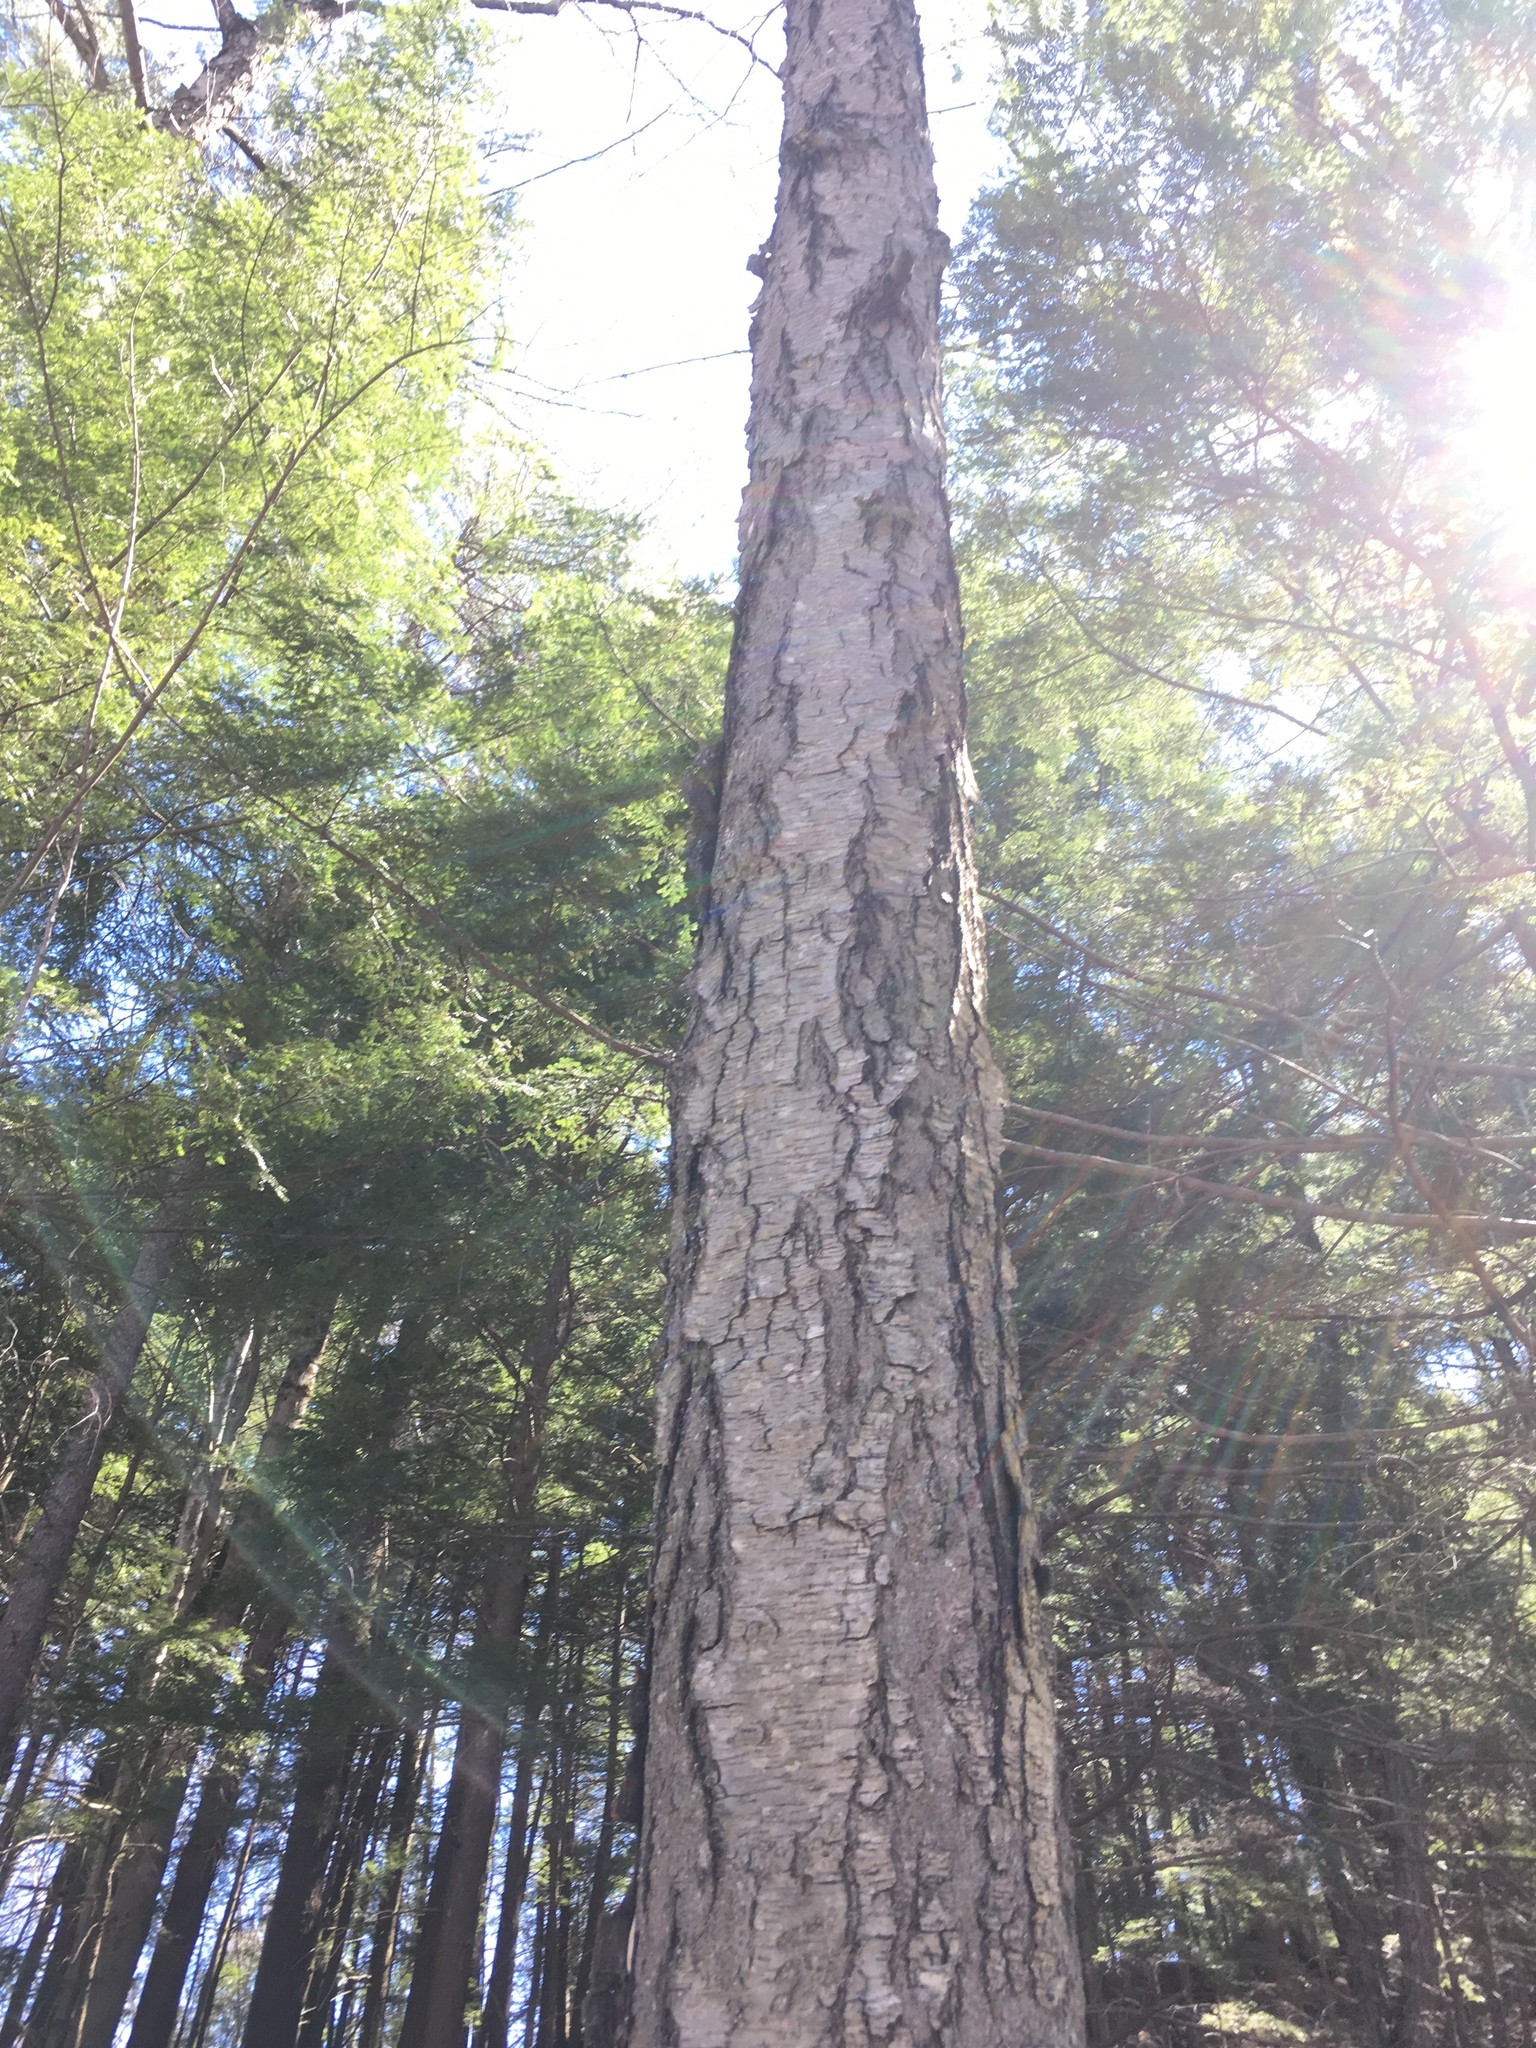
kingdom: Plantae
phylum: Tracheophyta
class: Magnoliopsida
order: Fagales
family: Betulaceae
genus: Betula
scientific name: Betula lenta
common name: Black birch
